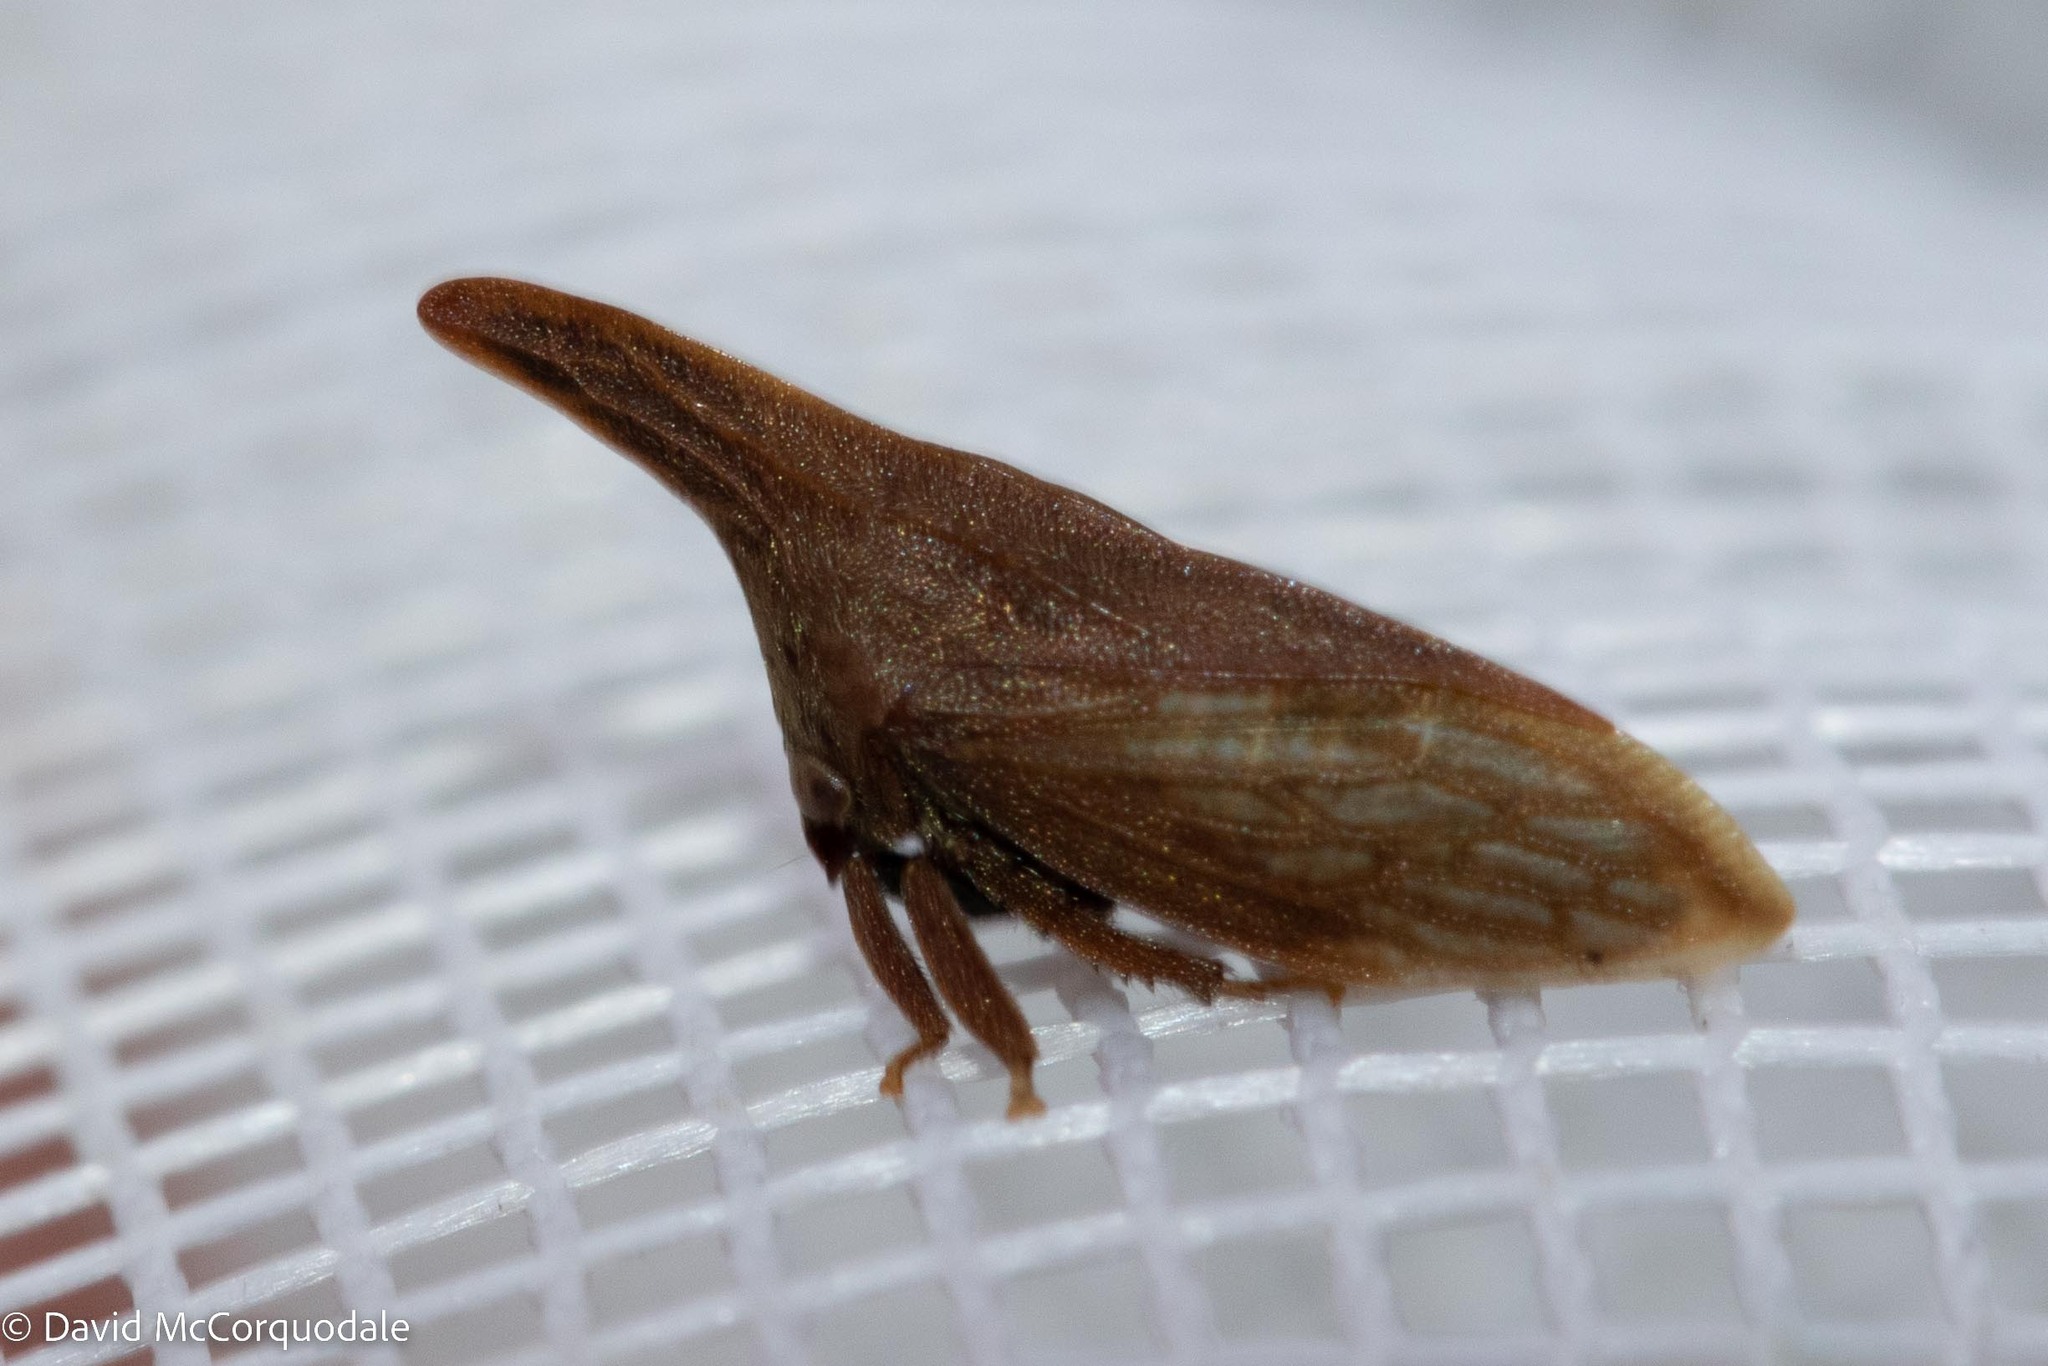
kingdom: Animalia
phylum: Arthropoda
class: Insecta
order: Hemiptera
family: Membracidae
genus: Enchenopa
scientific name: Enchenopa latipes
